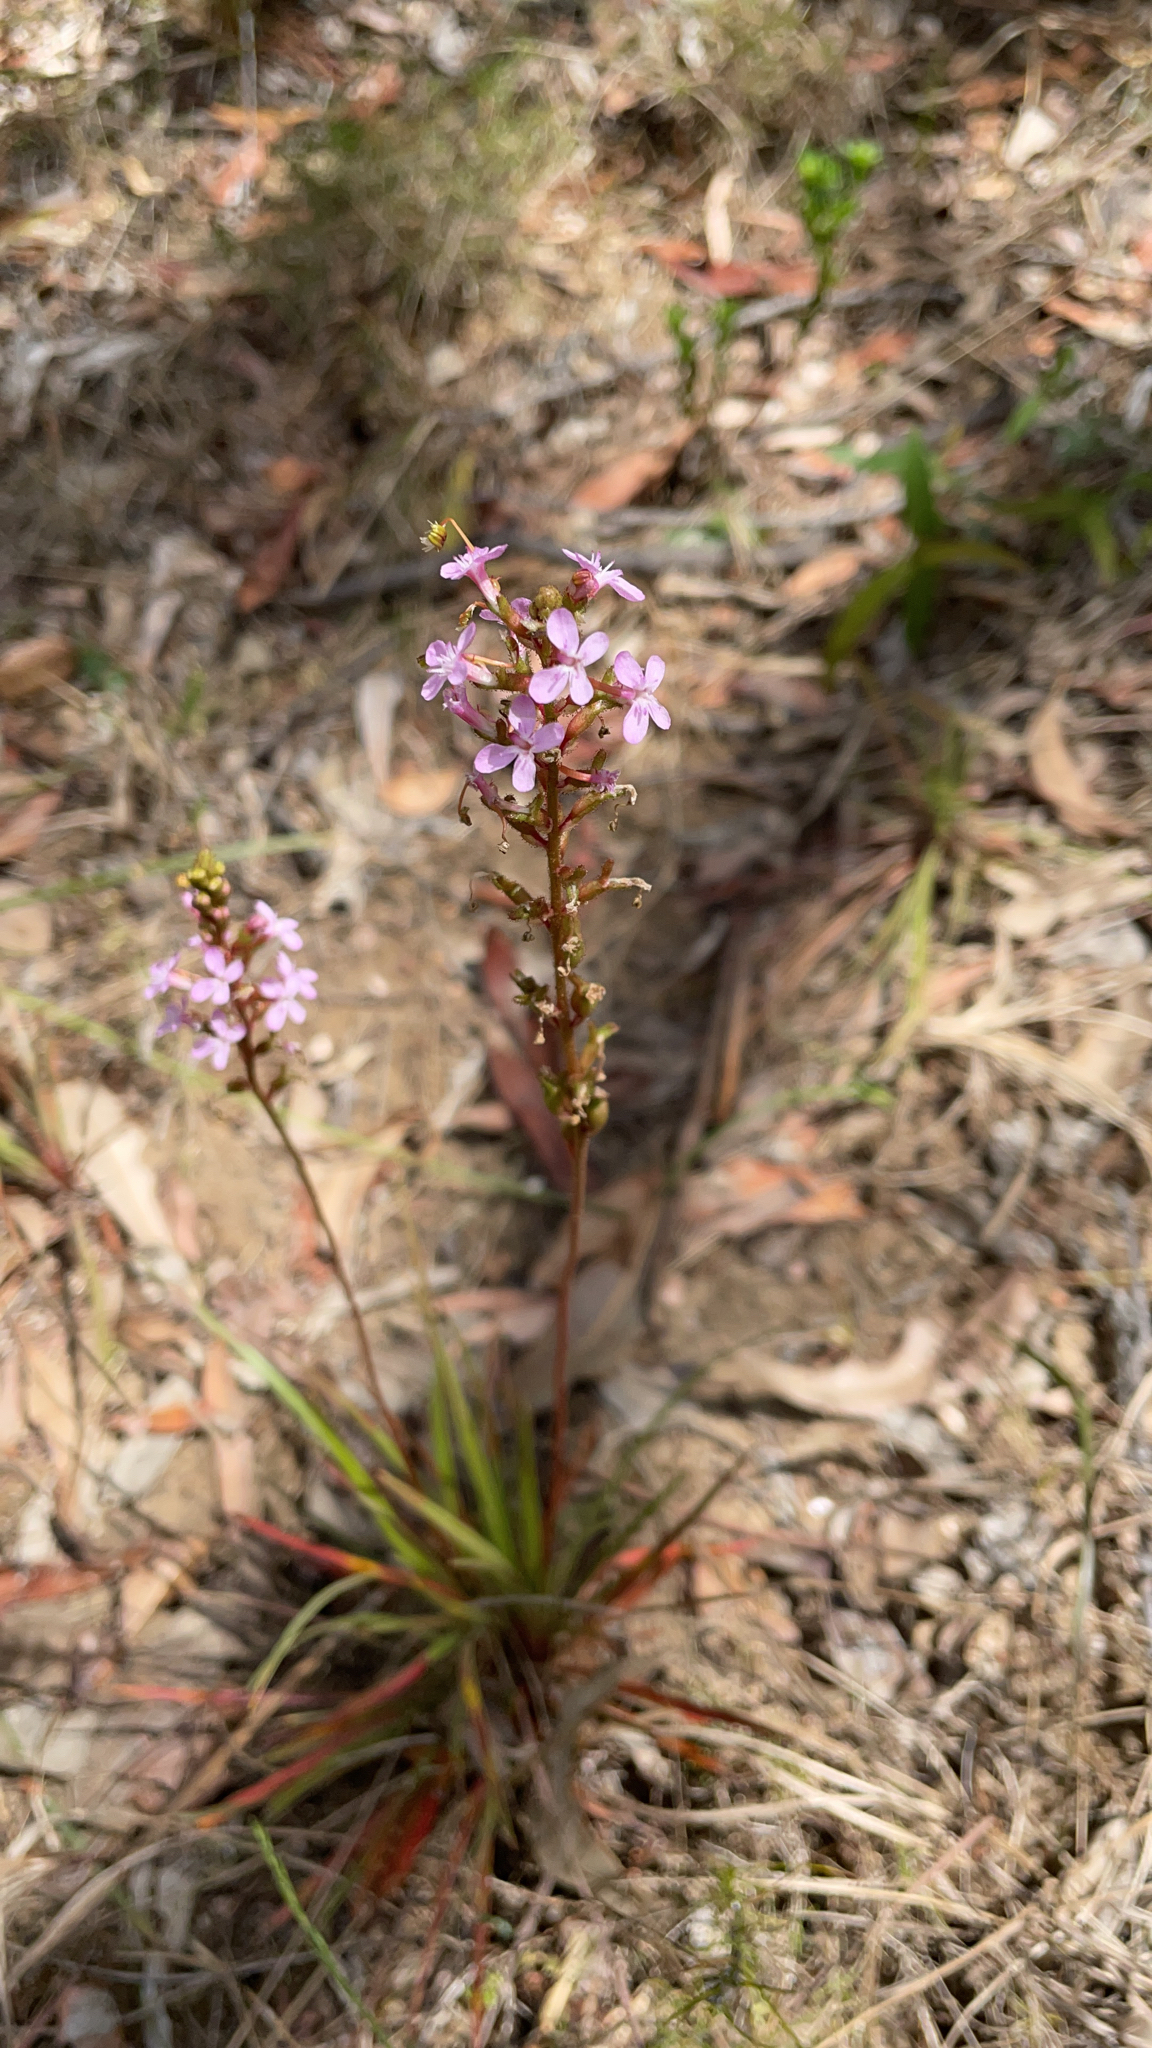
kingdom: Plantae
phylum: Tracheophyta
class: Magnoliopsida
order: Asterales
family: Stylidiaceae
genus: Stylidium
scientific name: Stylidium graminifolium
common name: Grass triggerplant
